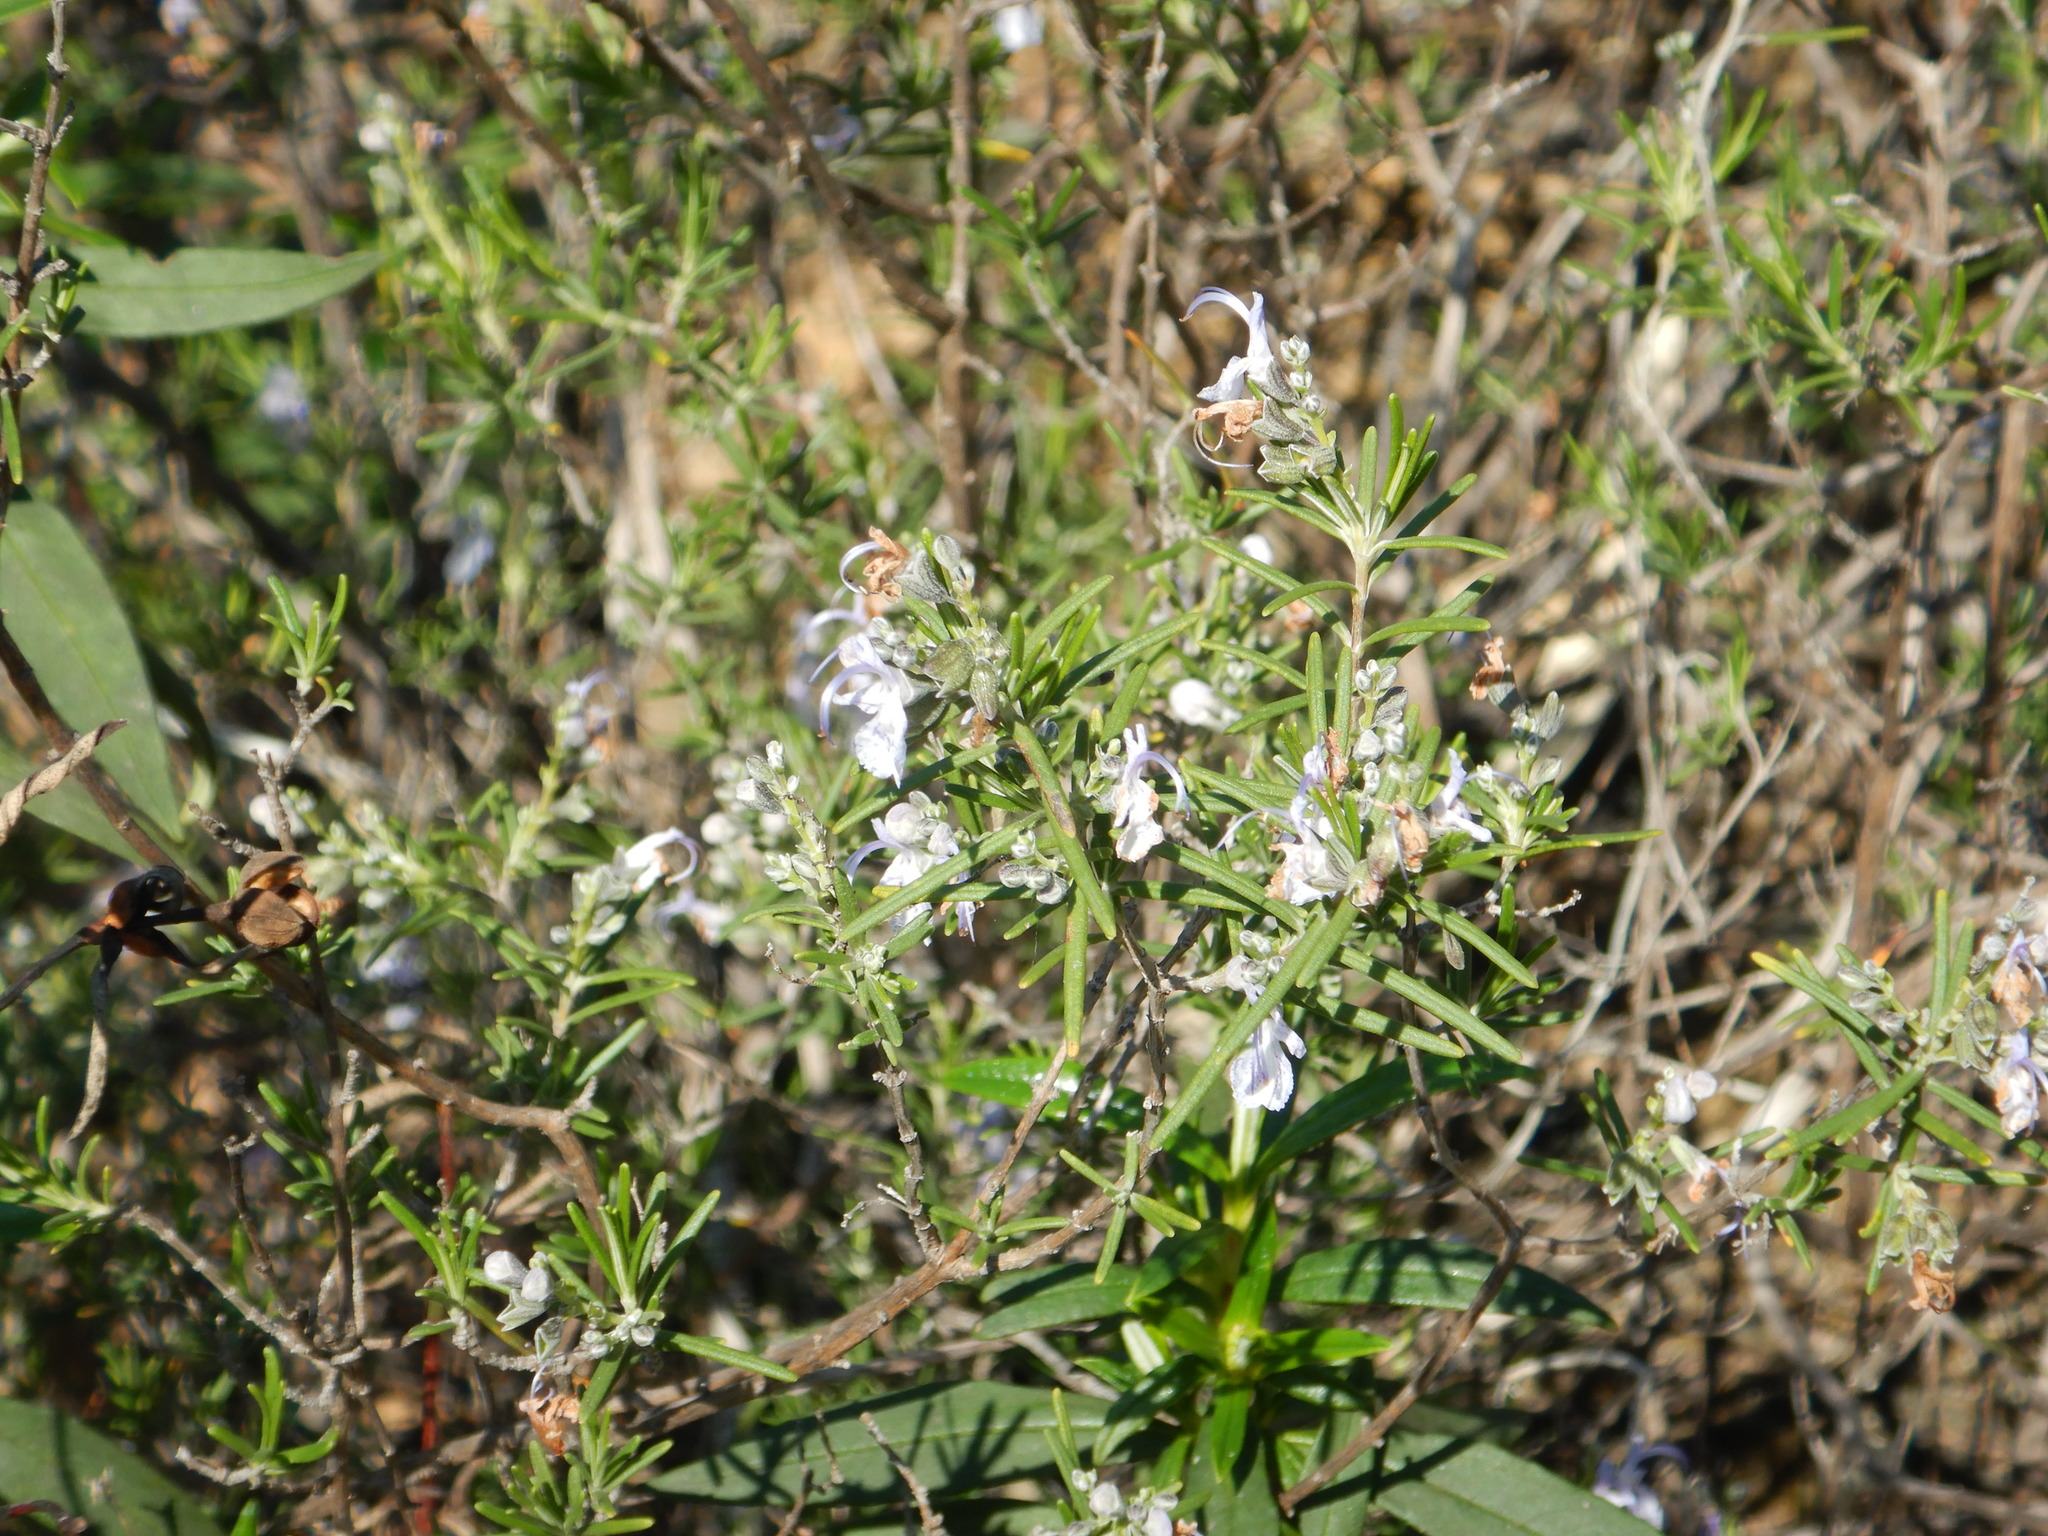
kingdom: Plantae
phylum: Tracheophyta
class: Magnoliopsida
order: Lamiales
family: Lamiaceae
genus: Salvia
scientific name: Salvia rosmarinus
